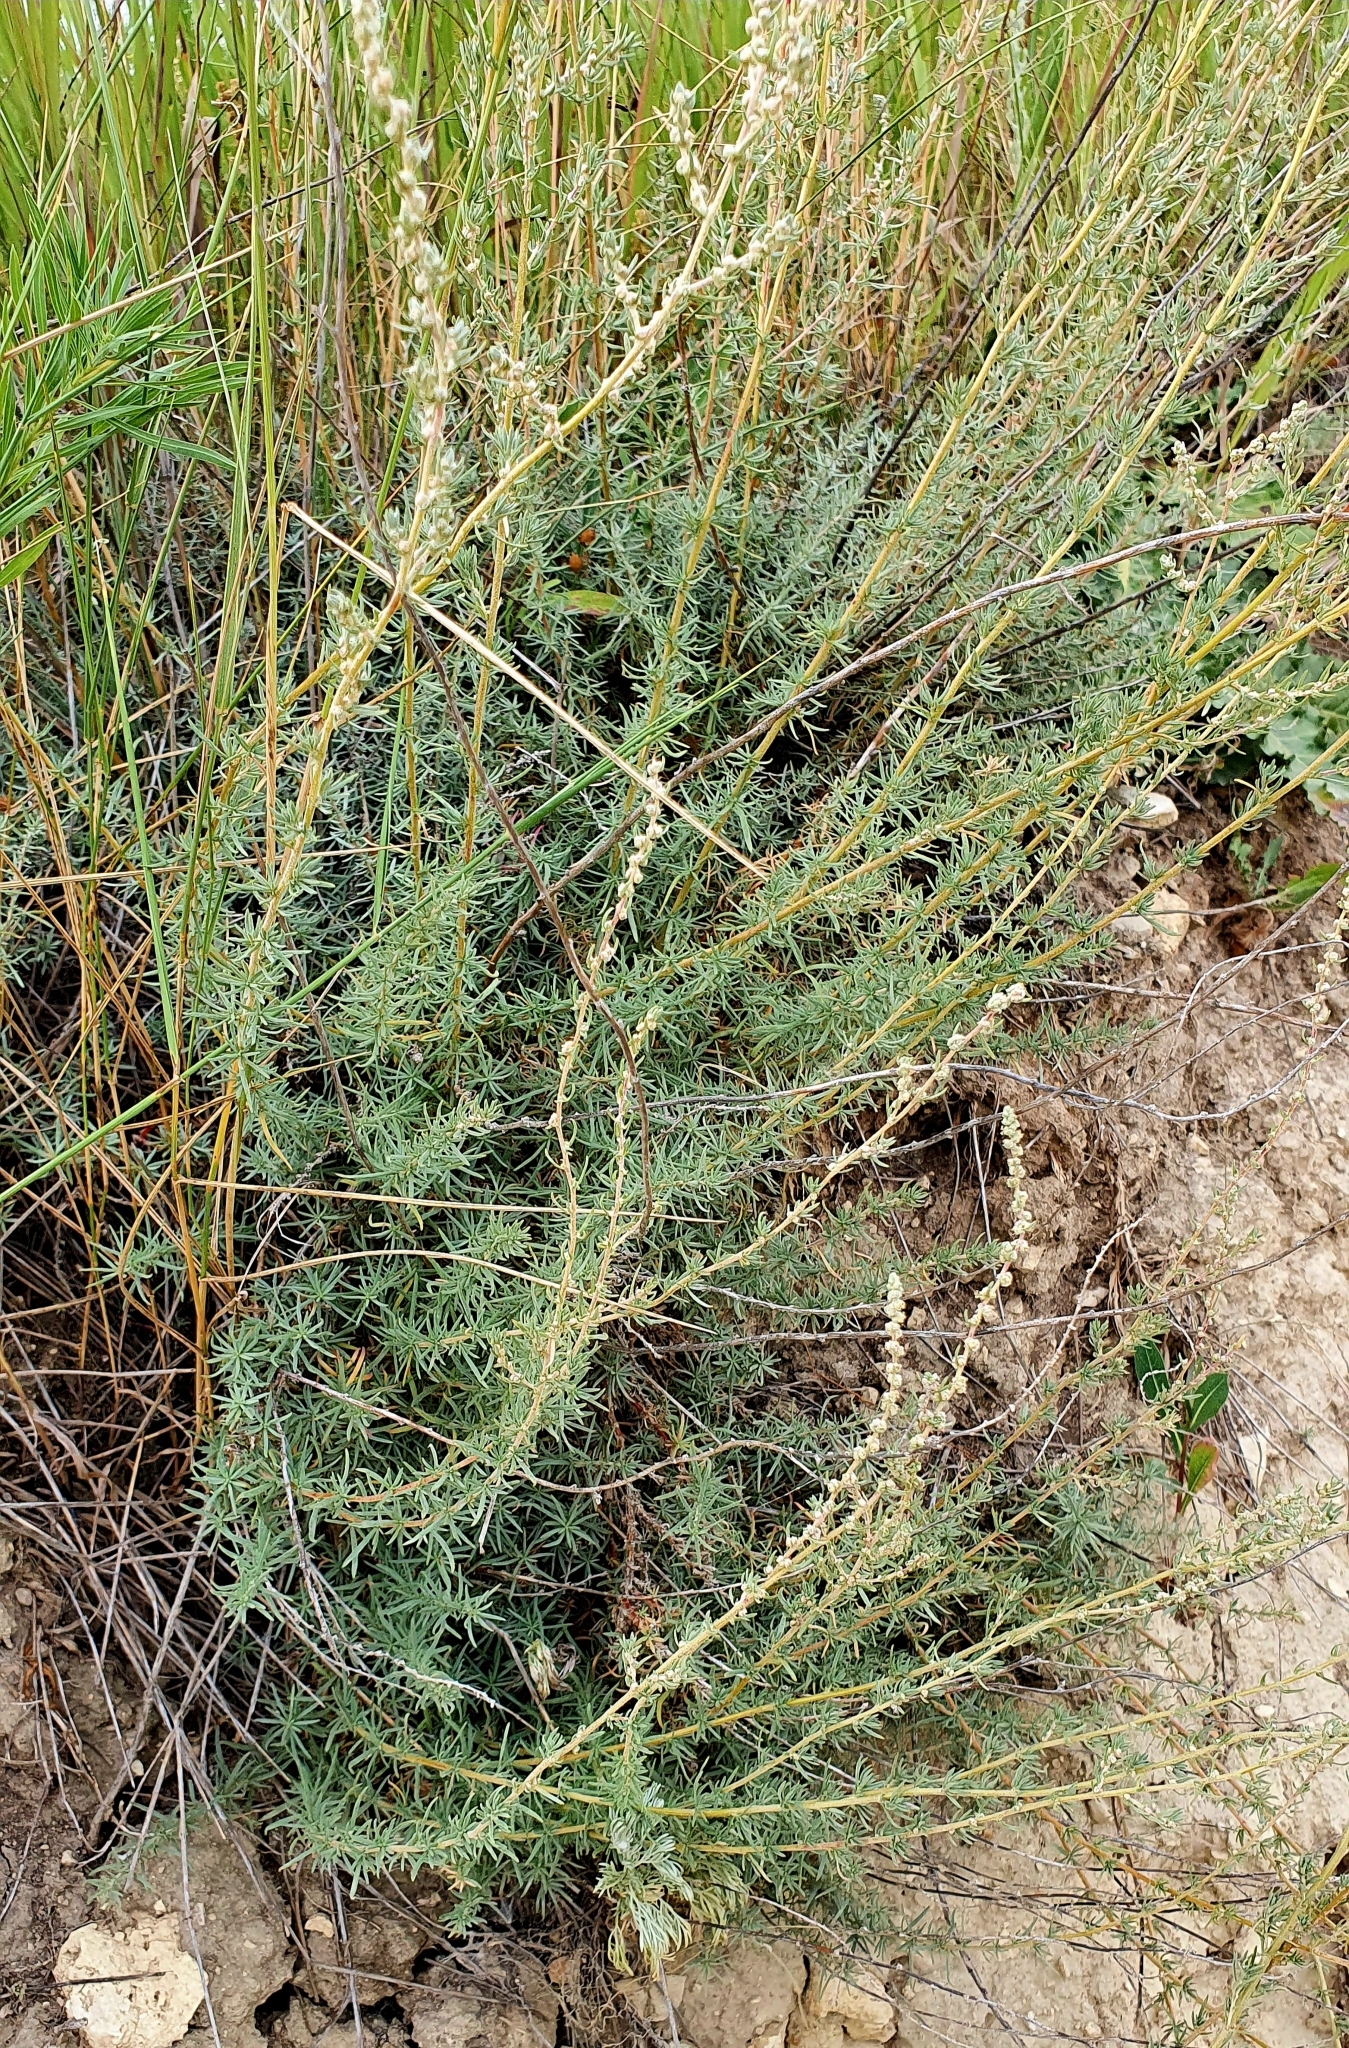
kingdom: Plantae
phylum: Tracheophyta
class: Magnoliopsida
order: Caryophyllales
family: Amaranthaceae
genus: Nitrosalsola
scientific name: Nitrosalsola laricina
